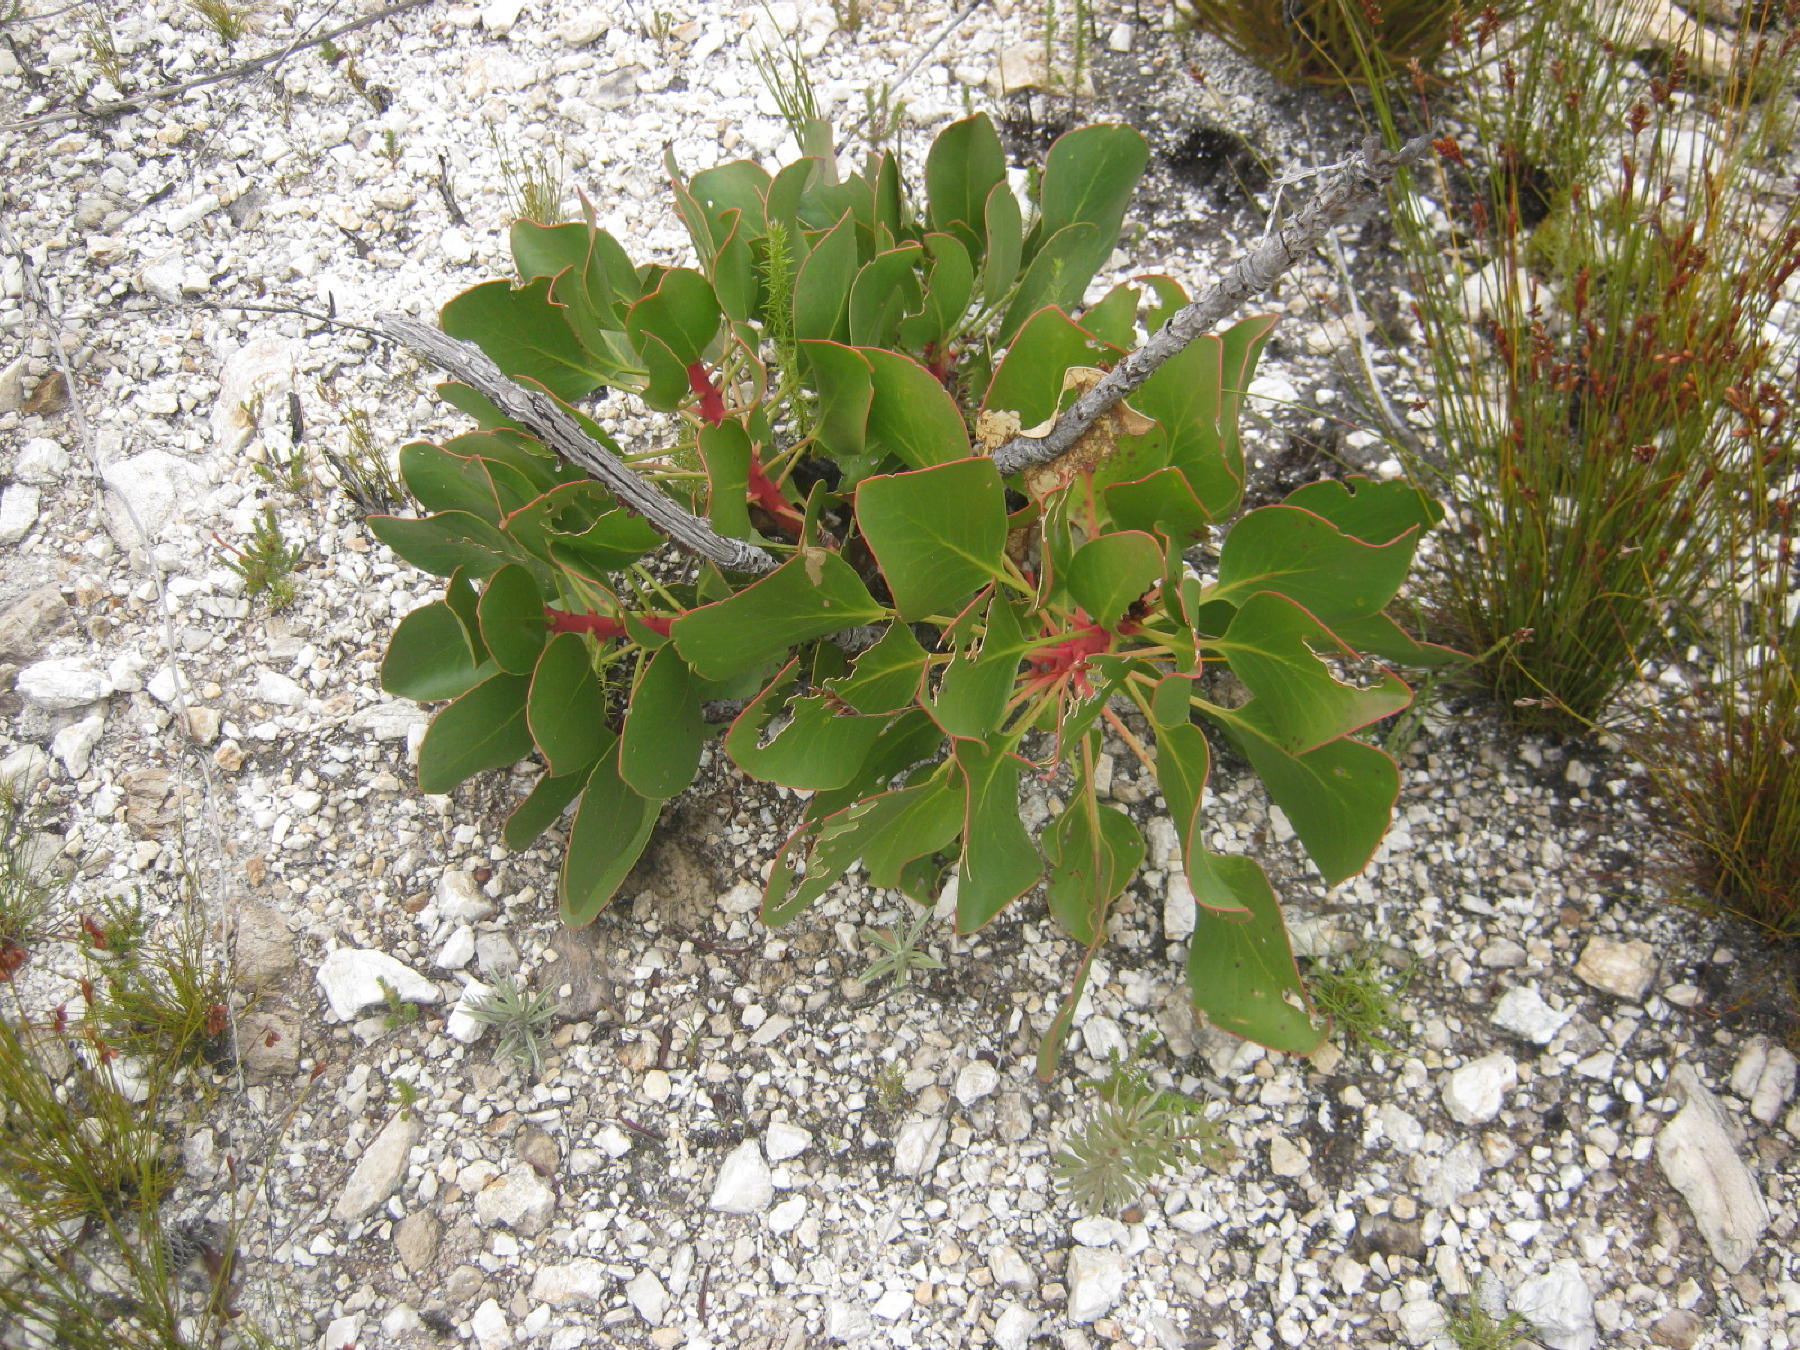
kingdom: Plantae
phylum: Tracheophyta
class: Magnoliopsida
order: Proteales
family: Proteaceae
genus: Protea
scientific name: Protea cynaroides
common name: King protea
